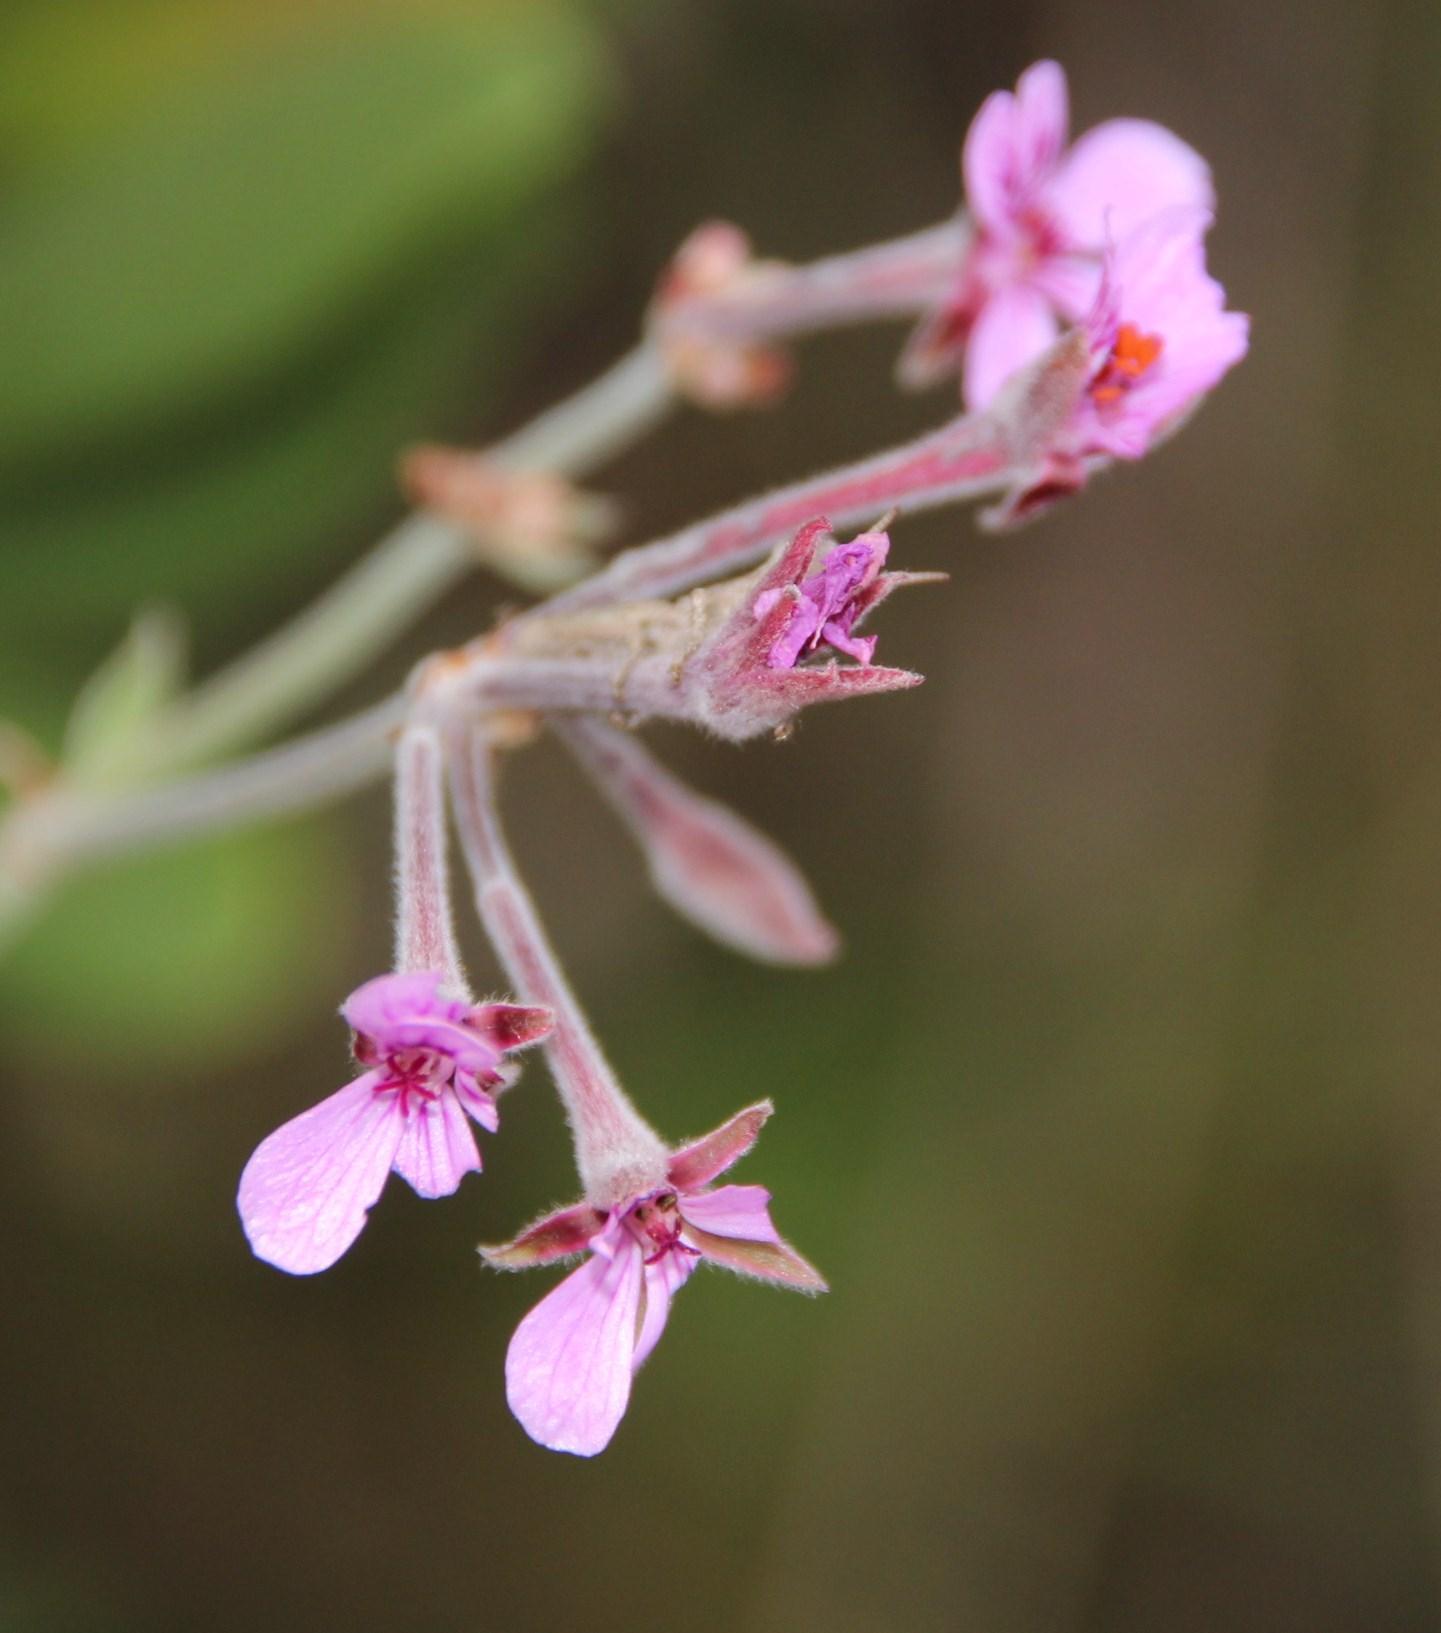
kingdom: Plantae
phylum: Tracheophyta
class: Magnoliopsida
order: Geraniales
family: Geraniaceae
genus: Pelargonium
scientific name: Pelargonium reniforme
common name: Kidney-leaf pelargonium
